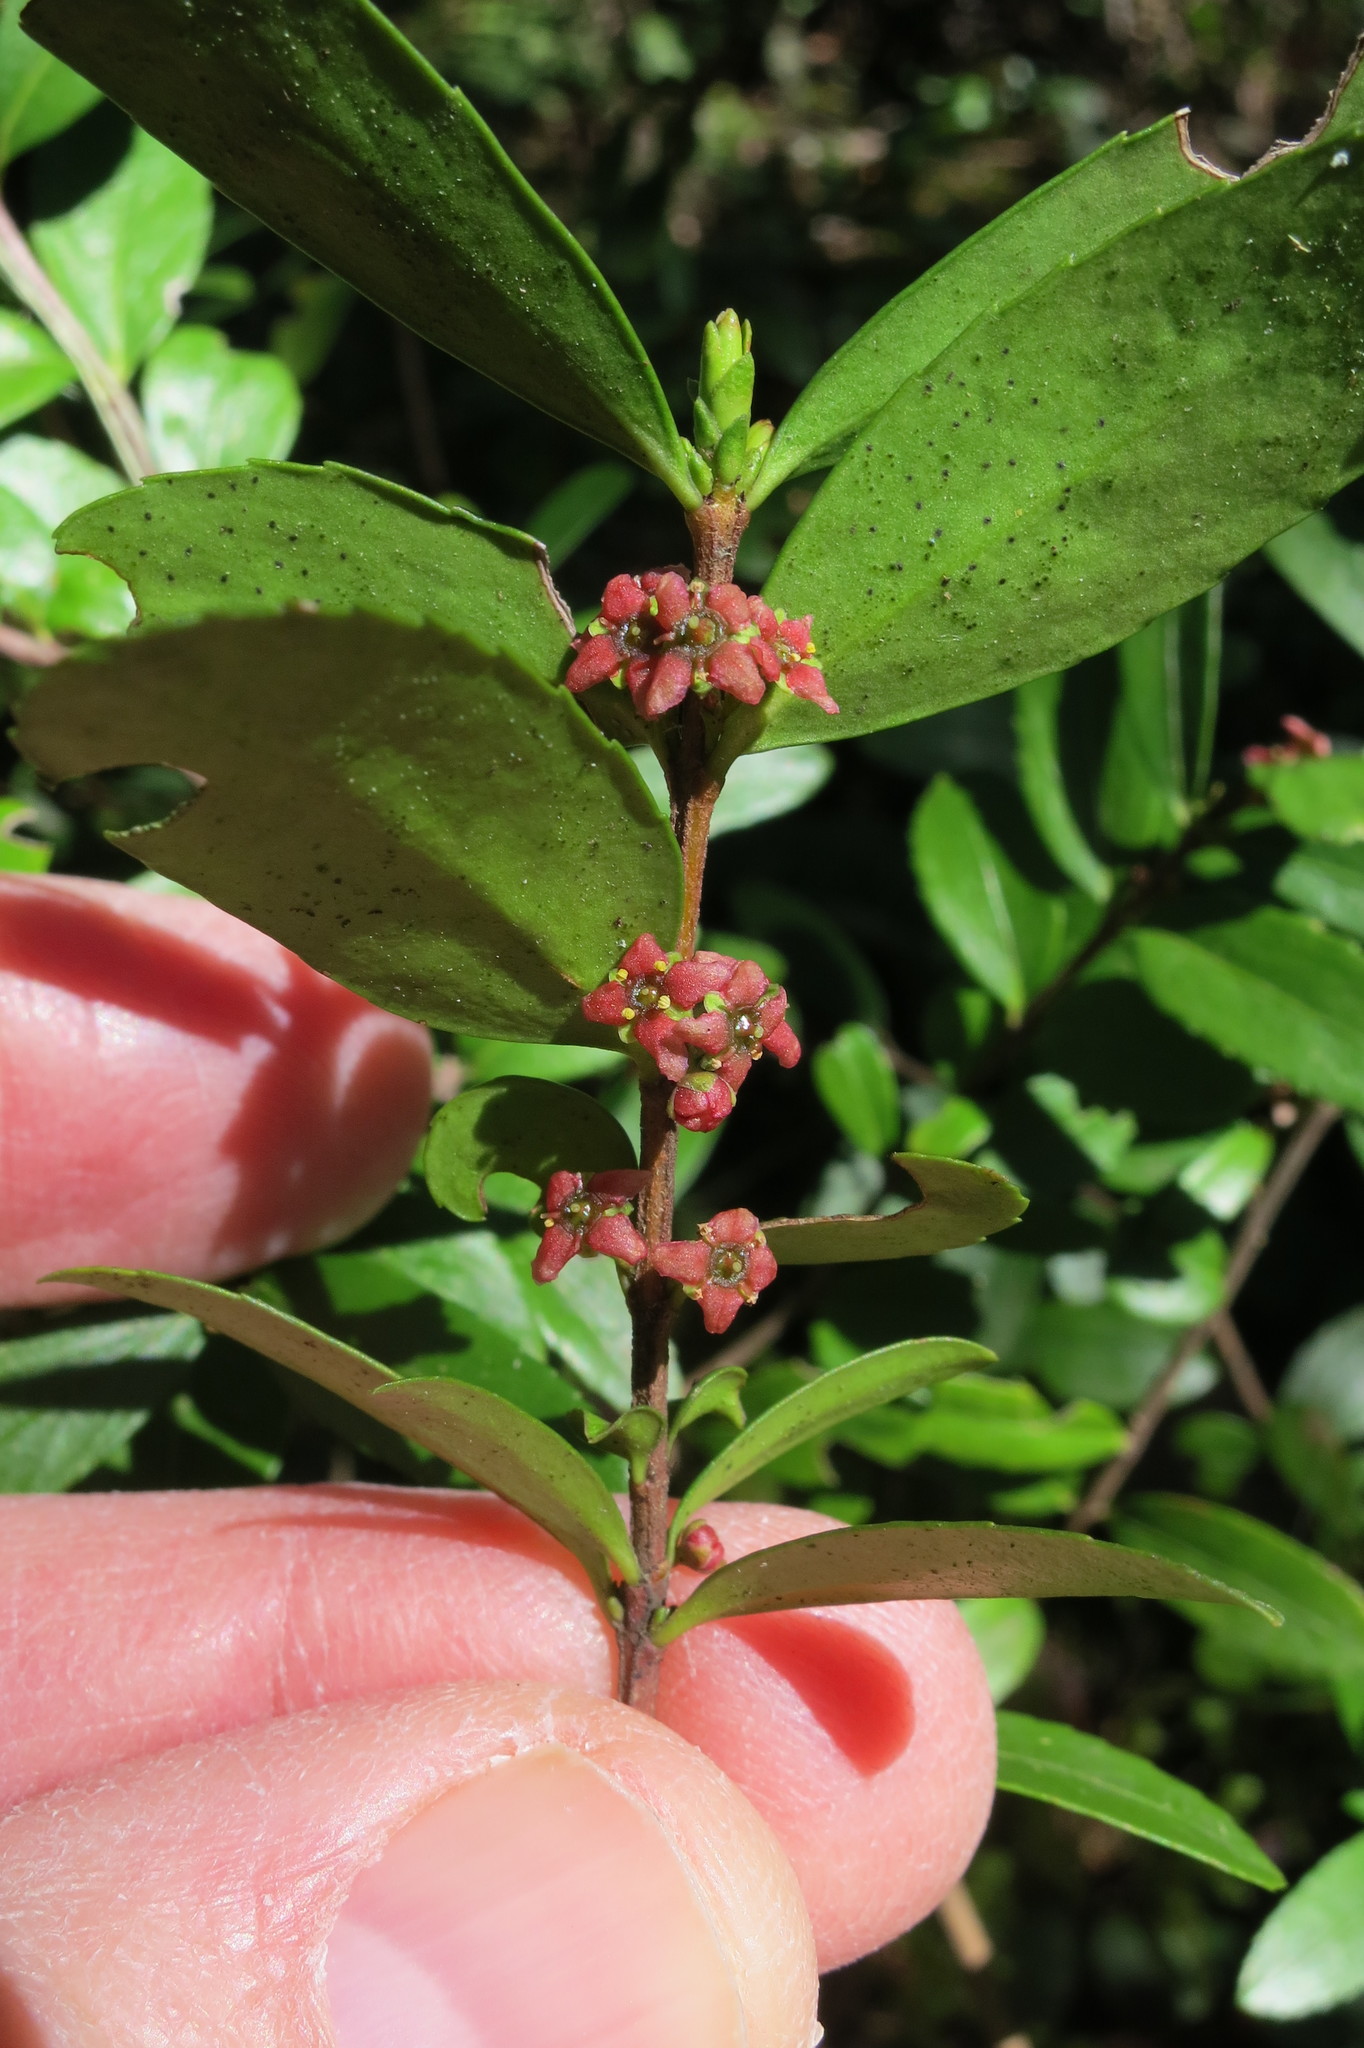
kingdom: Plantae
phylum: Tracheophyta
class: Magnoliopsida
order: Celastrales
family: Celastraceae
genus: Paxistima
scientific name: Paxistima myrsinites
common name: Mountain-lover
